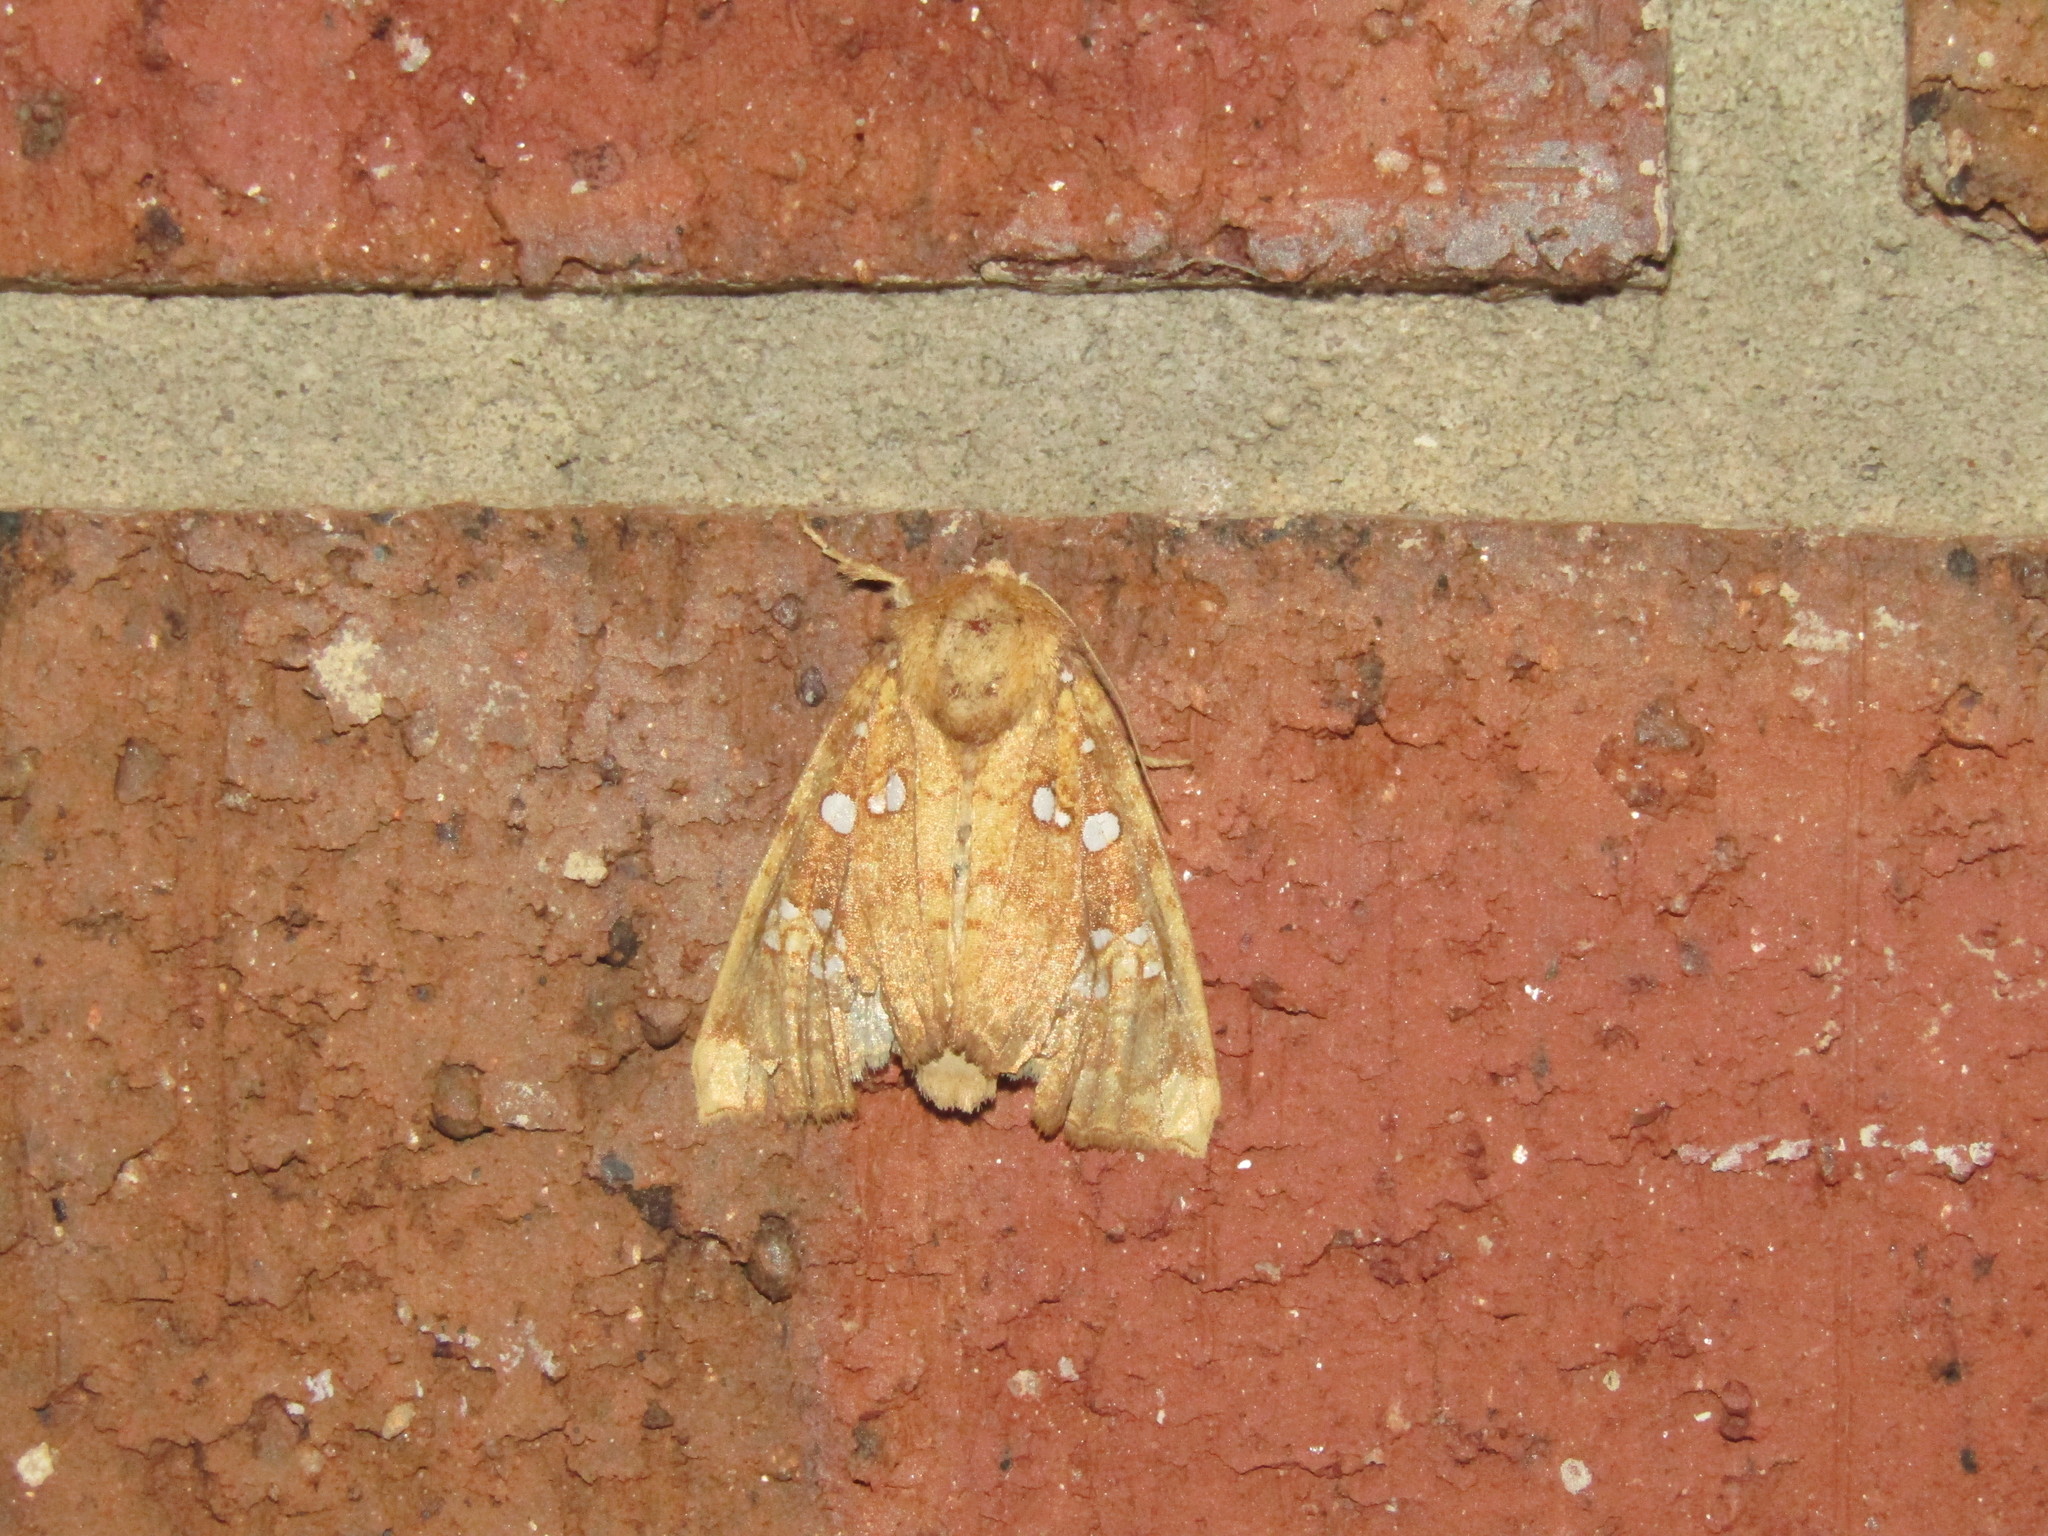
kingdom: Animalia
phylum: Arthropoda
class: Insecta
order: Lepidoptera
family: Noctuidae
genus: Papaipema
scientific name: Papaipema furcata
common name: Ash tip borer moth
